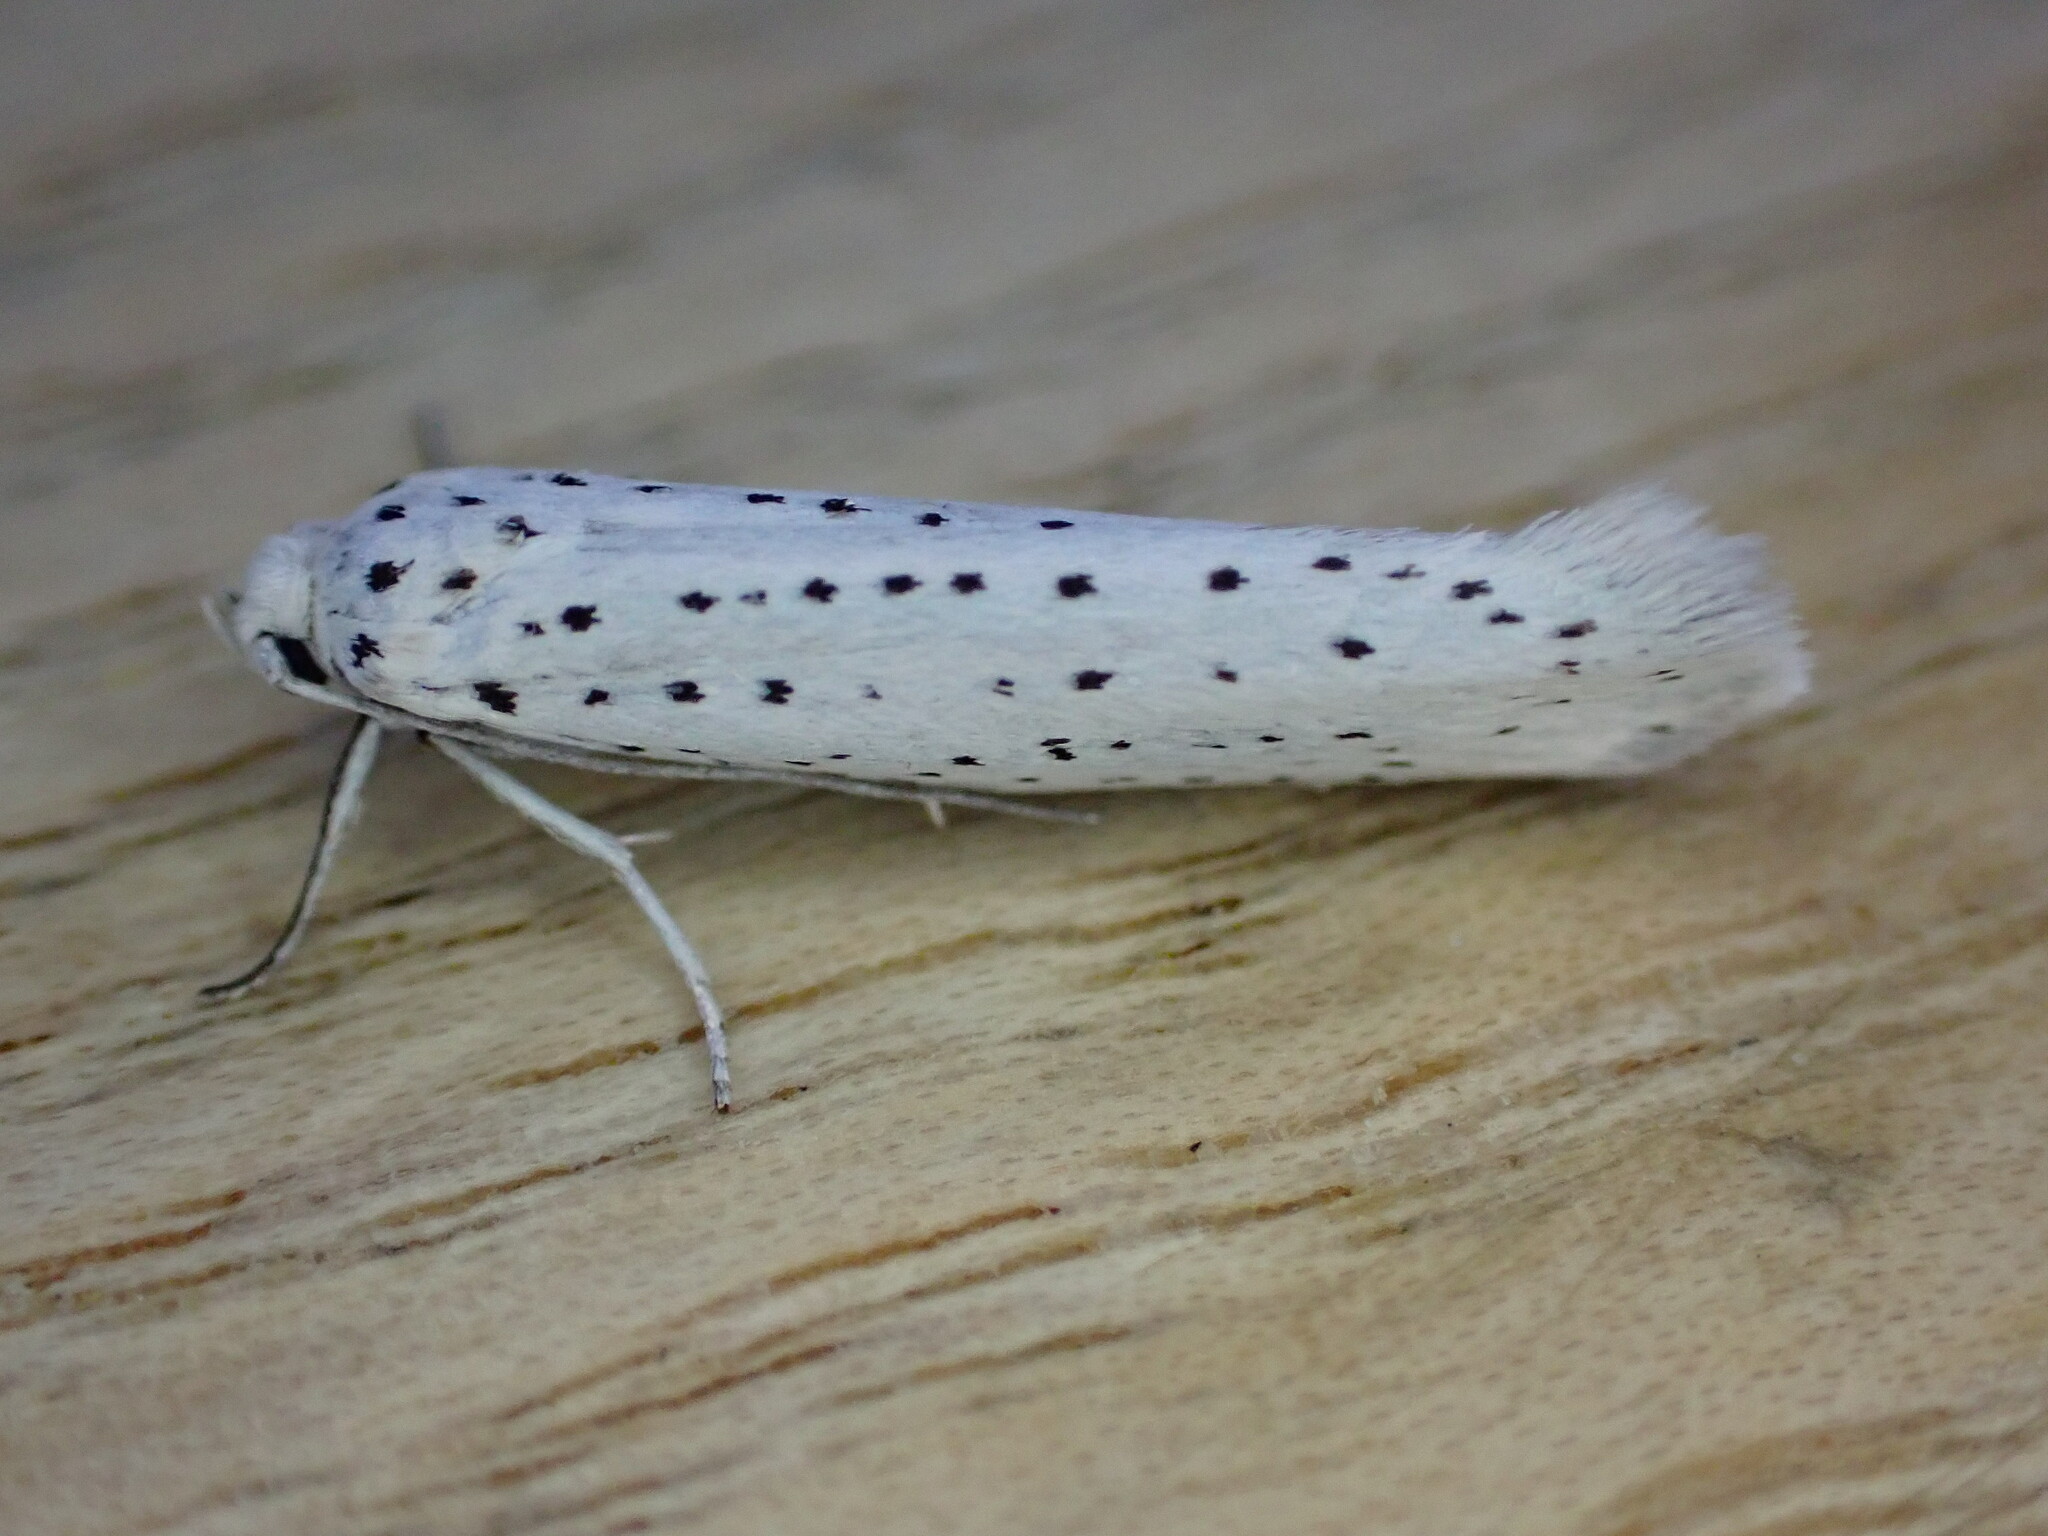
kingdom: Animalia
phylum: Arthropoda
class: Insecta
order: Lepidoptera
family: Yponomeutidae
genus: Yponomeuta
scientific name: Yponomeuta evonymella
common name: Bird-cherry ermine
